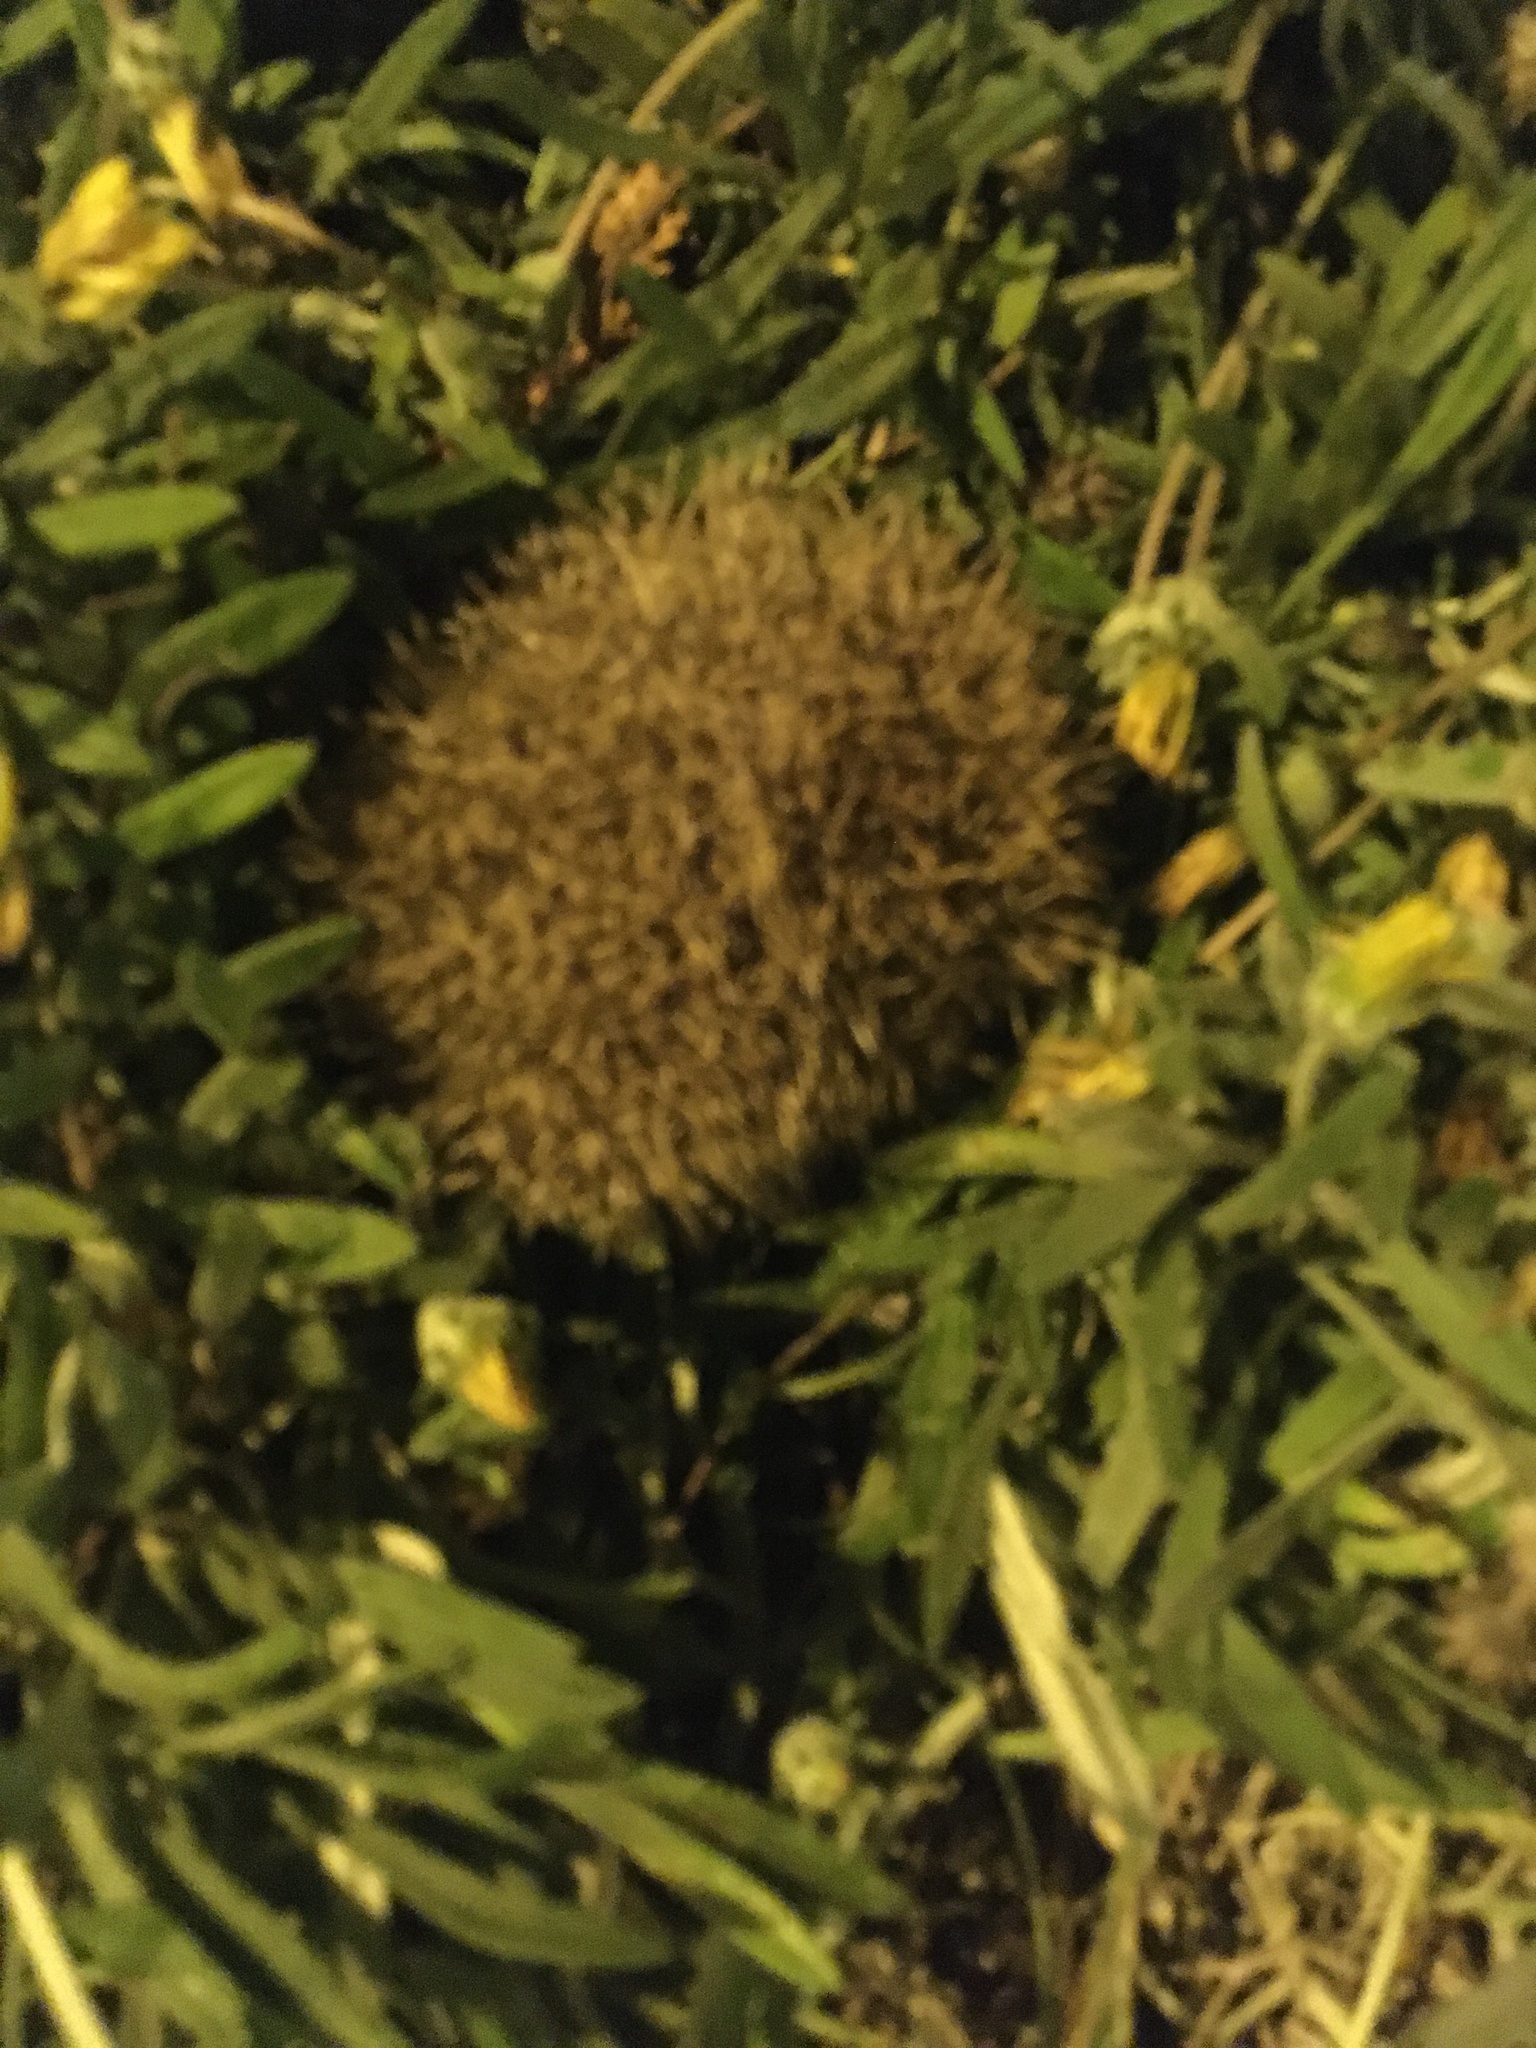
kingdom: Animalia
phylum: Chordata
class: Mammalia
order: Erinaceomorpha
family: Erinaceidae
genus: Erinaceus
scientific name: Erinaceus europaeus
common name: West european hedgehog
